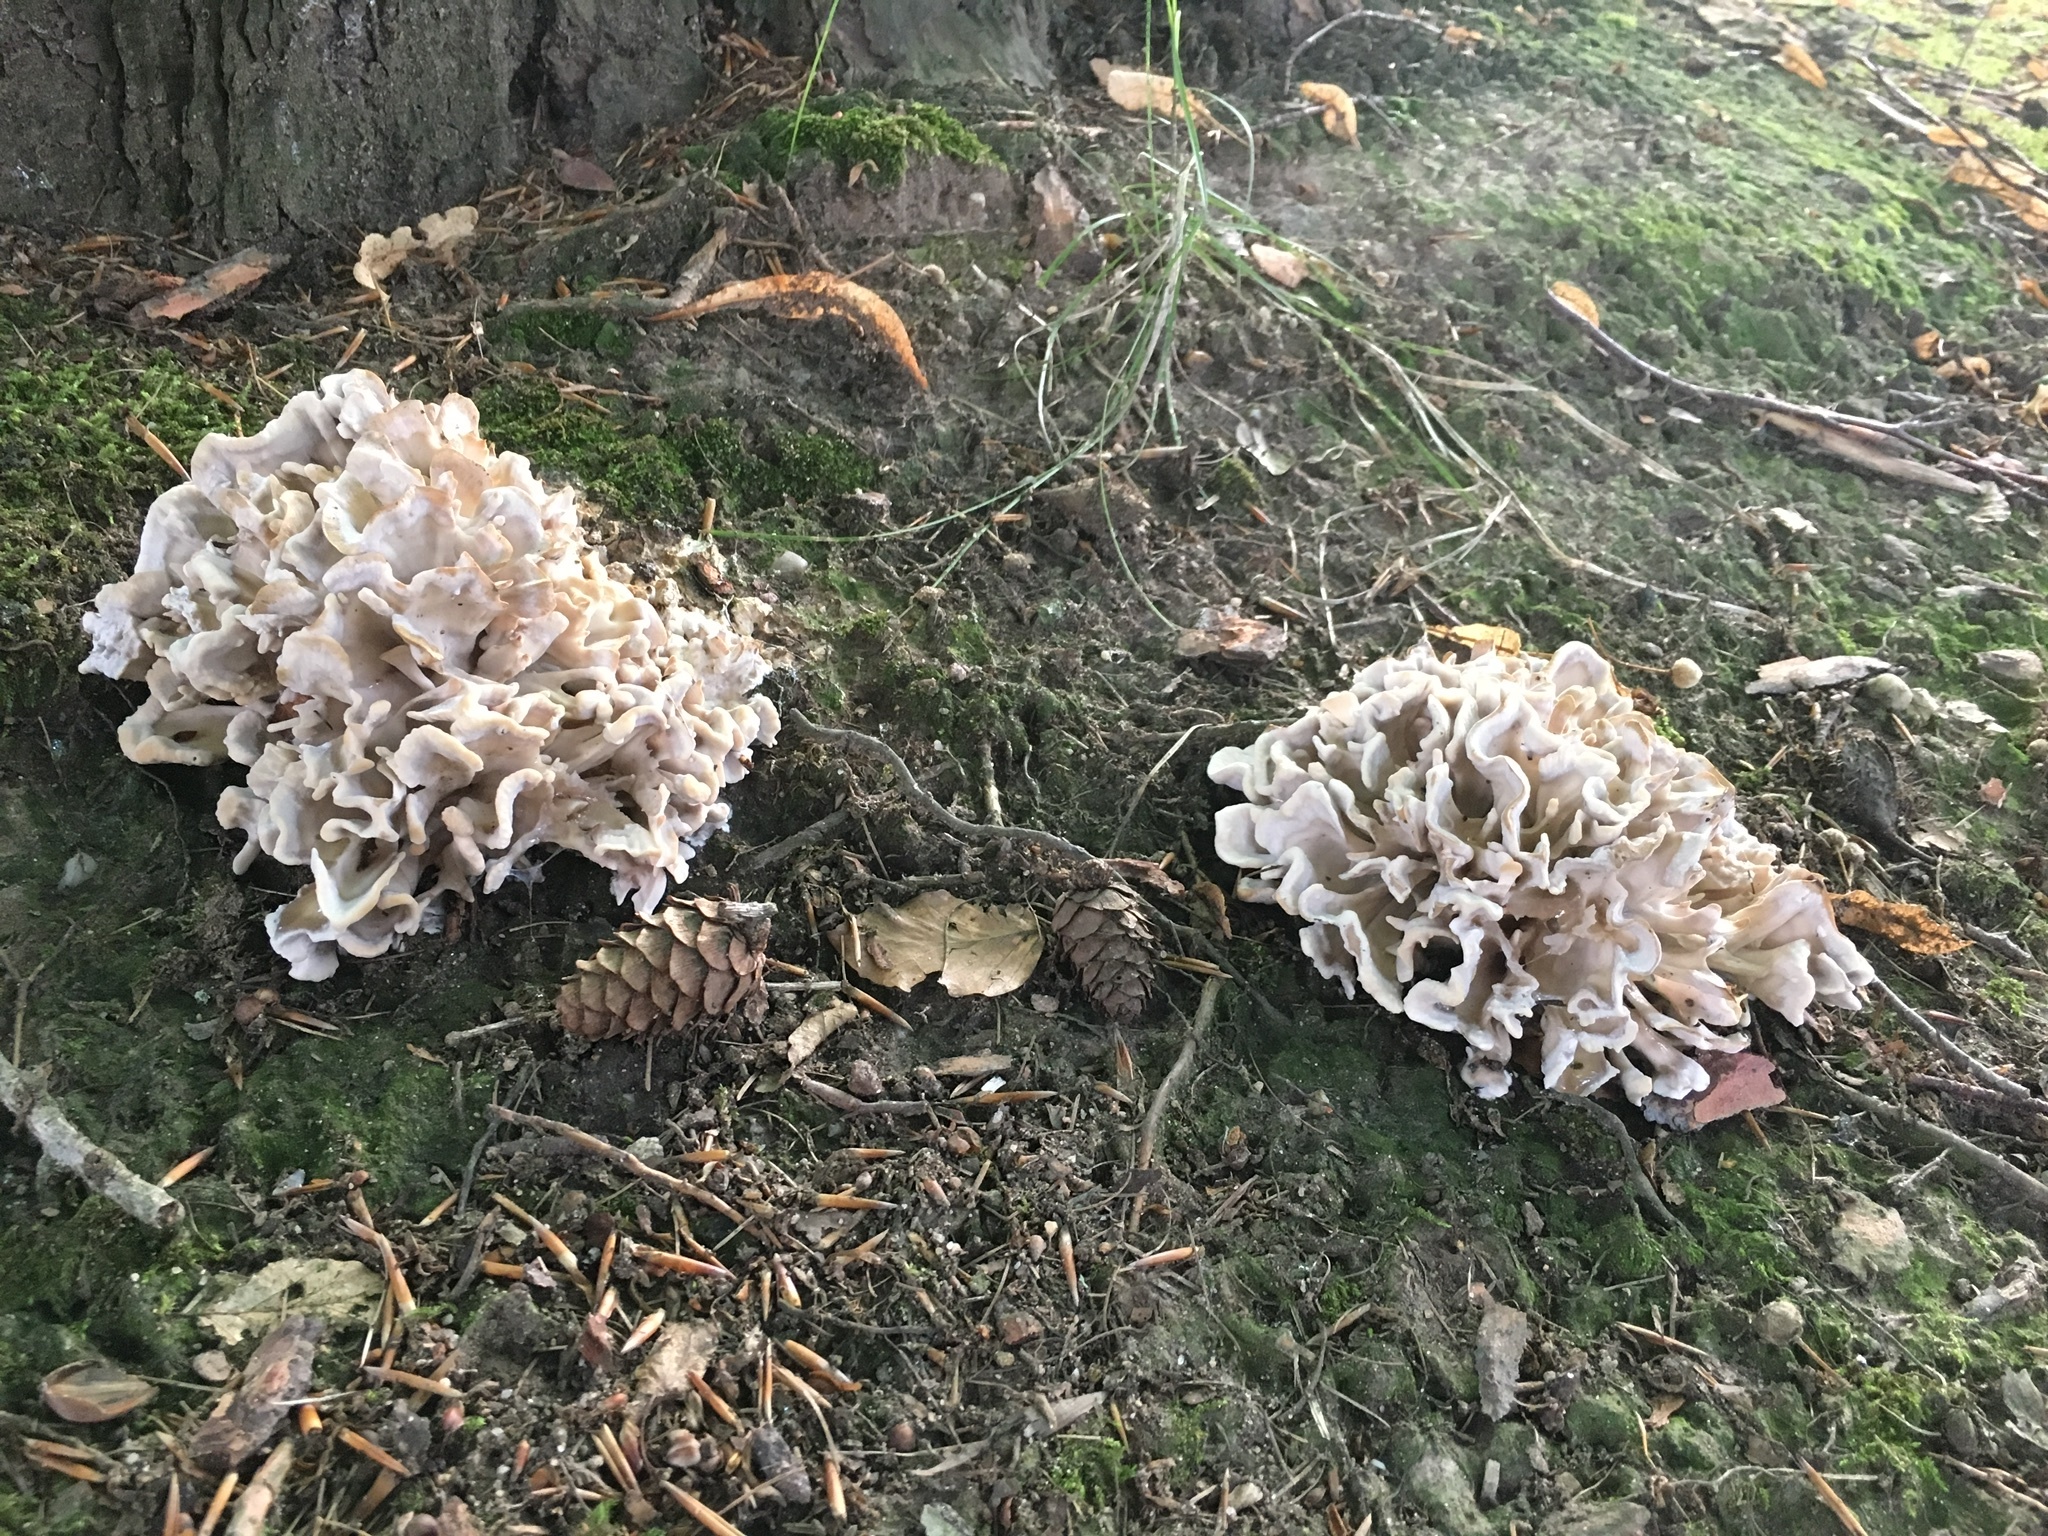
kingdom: Fungi
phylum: Basidiomycota
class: Agaricomycetes
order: Polyporales
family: Sparassidaceae
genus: Sparassis
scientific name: Sparassis brevipes
